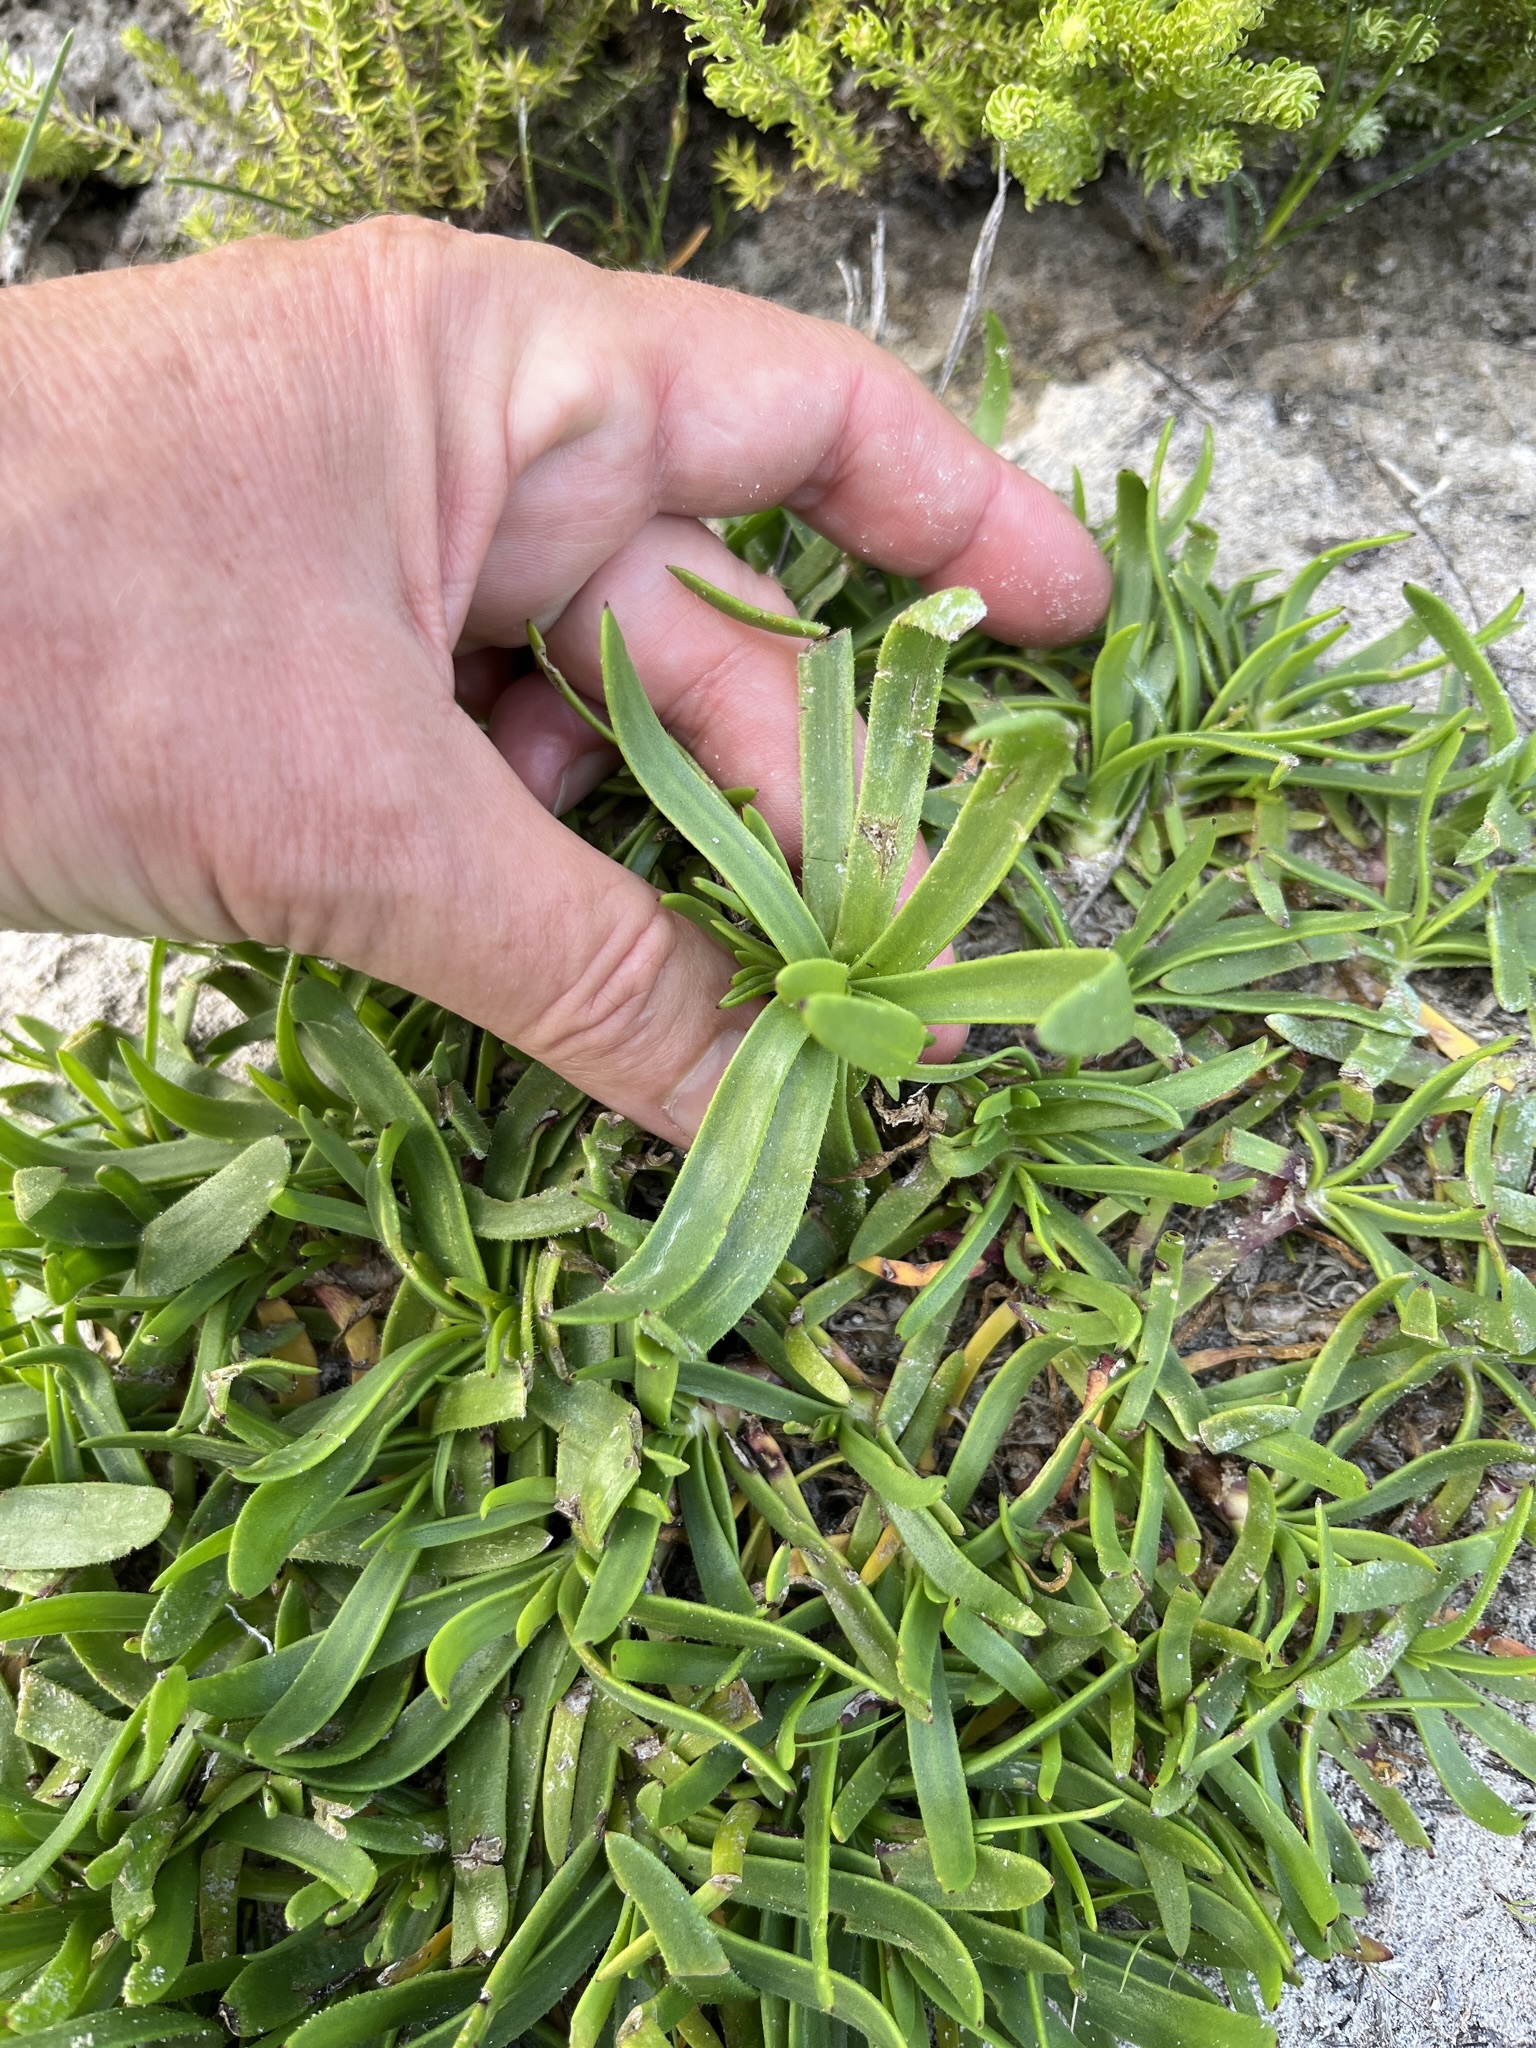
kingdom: Plantae
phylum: Tracheophyta
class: Magnoliopsida
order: Lamiales
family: Plantaginaceae
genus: Plantago
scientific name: Plantago carnosa
